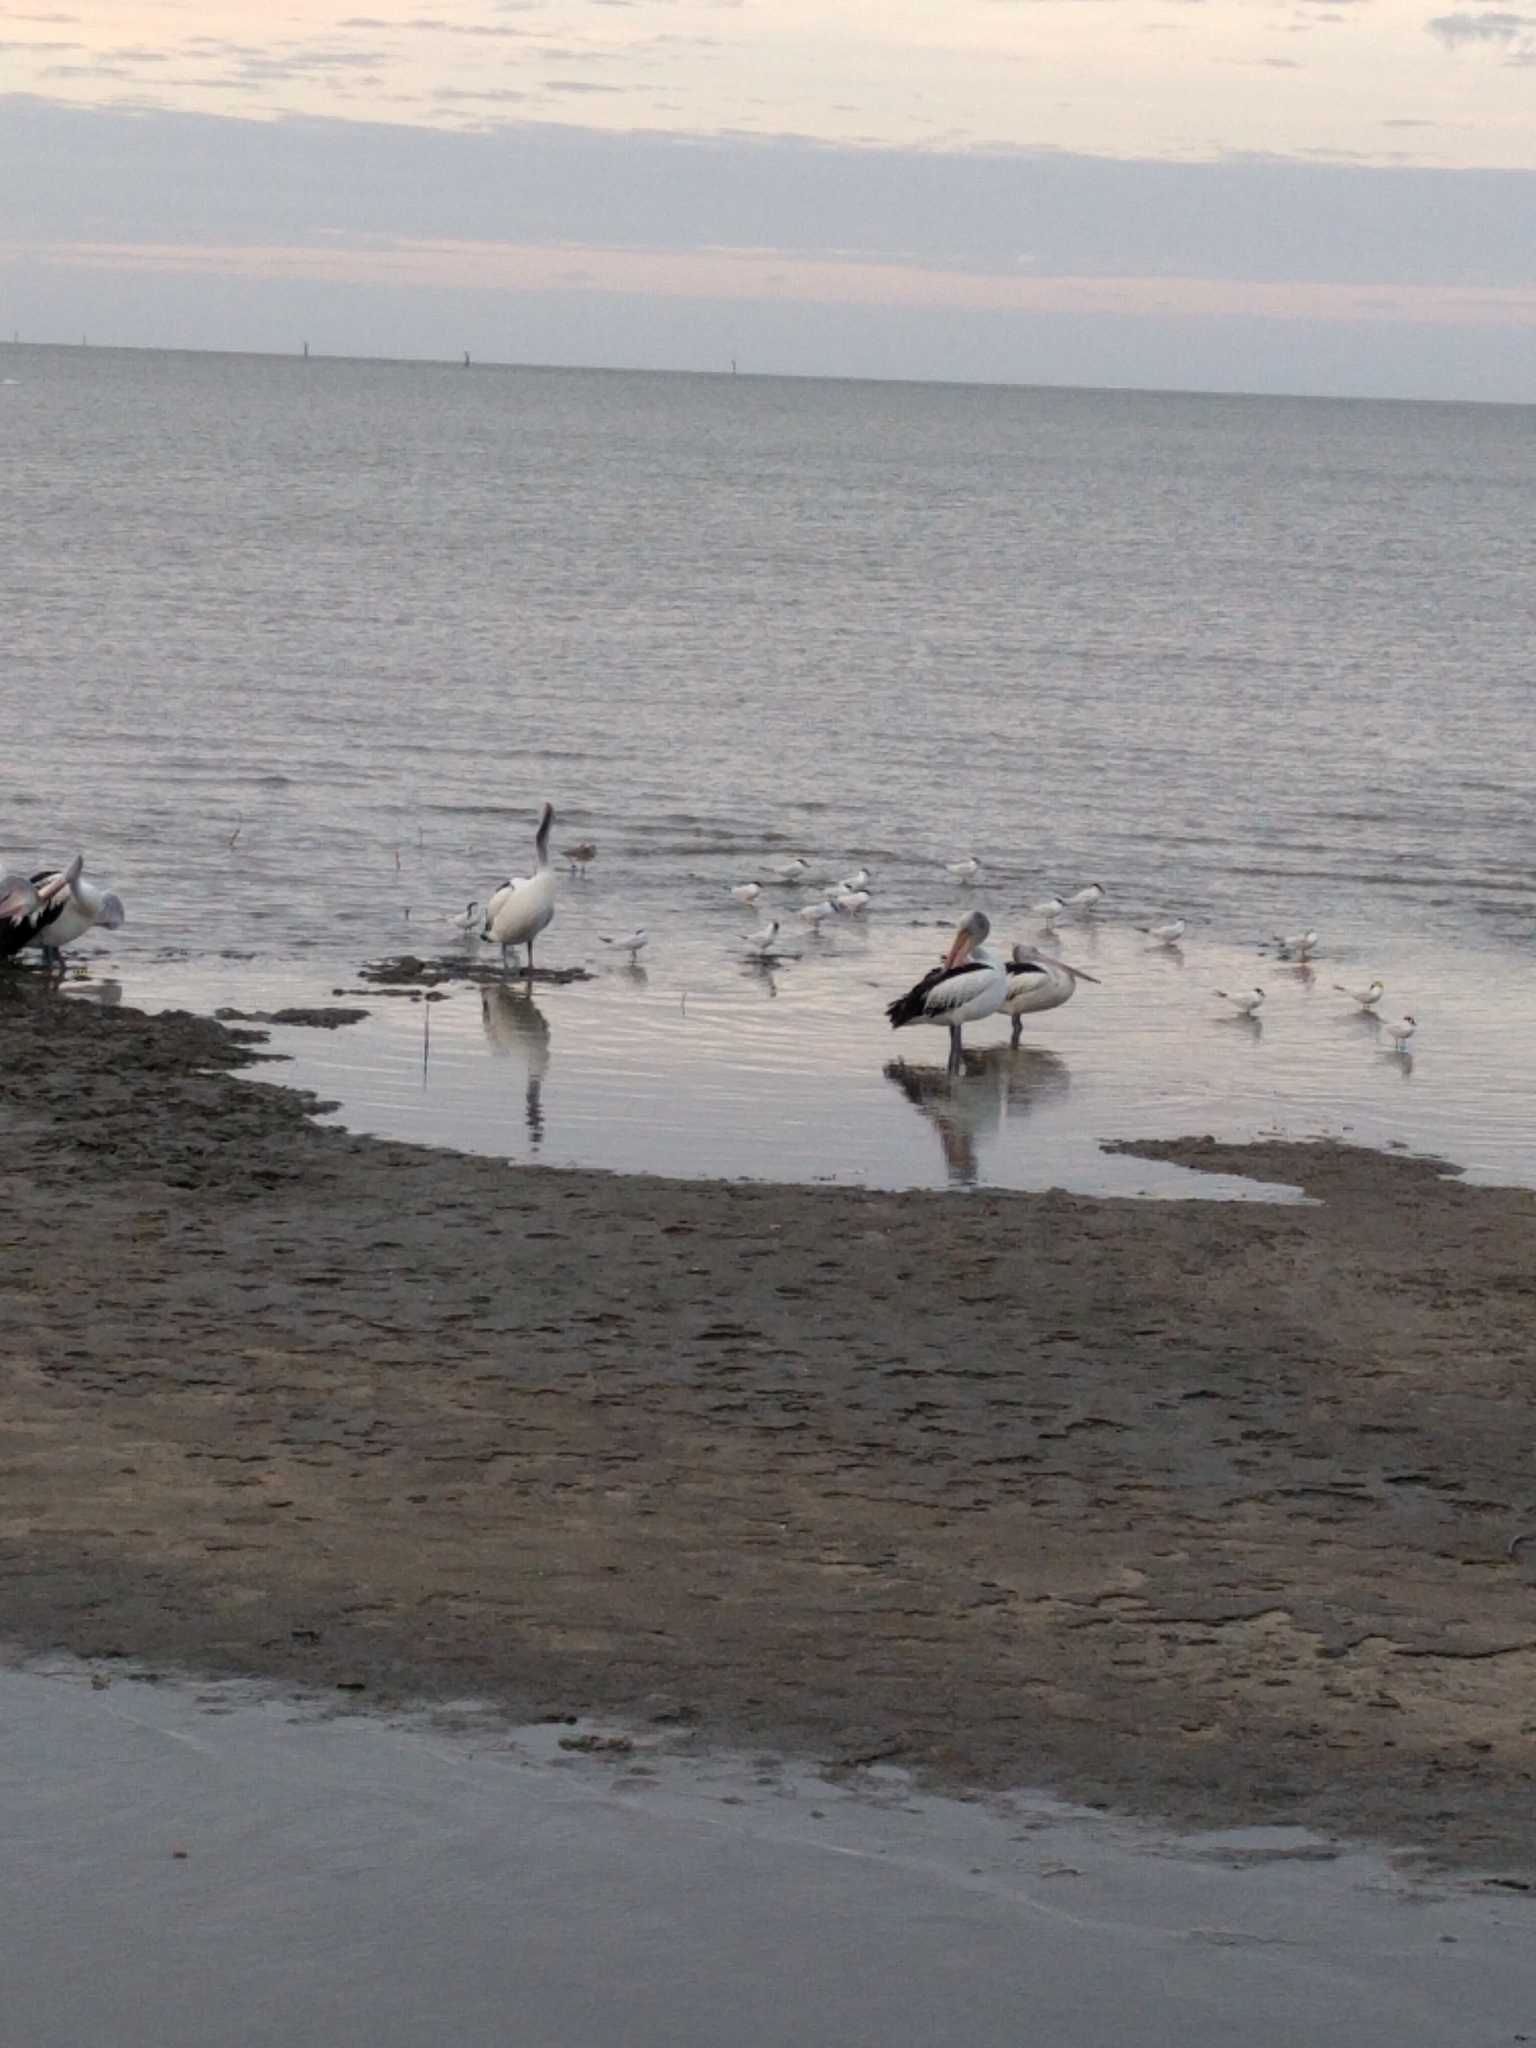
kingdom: Animalia
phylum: Chordata
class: Aves
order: Pelecaniformes
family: Pelecanidae
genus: Pelecanus
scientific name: Pelecanus conspicillatus
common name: Australian pelican
